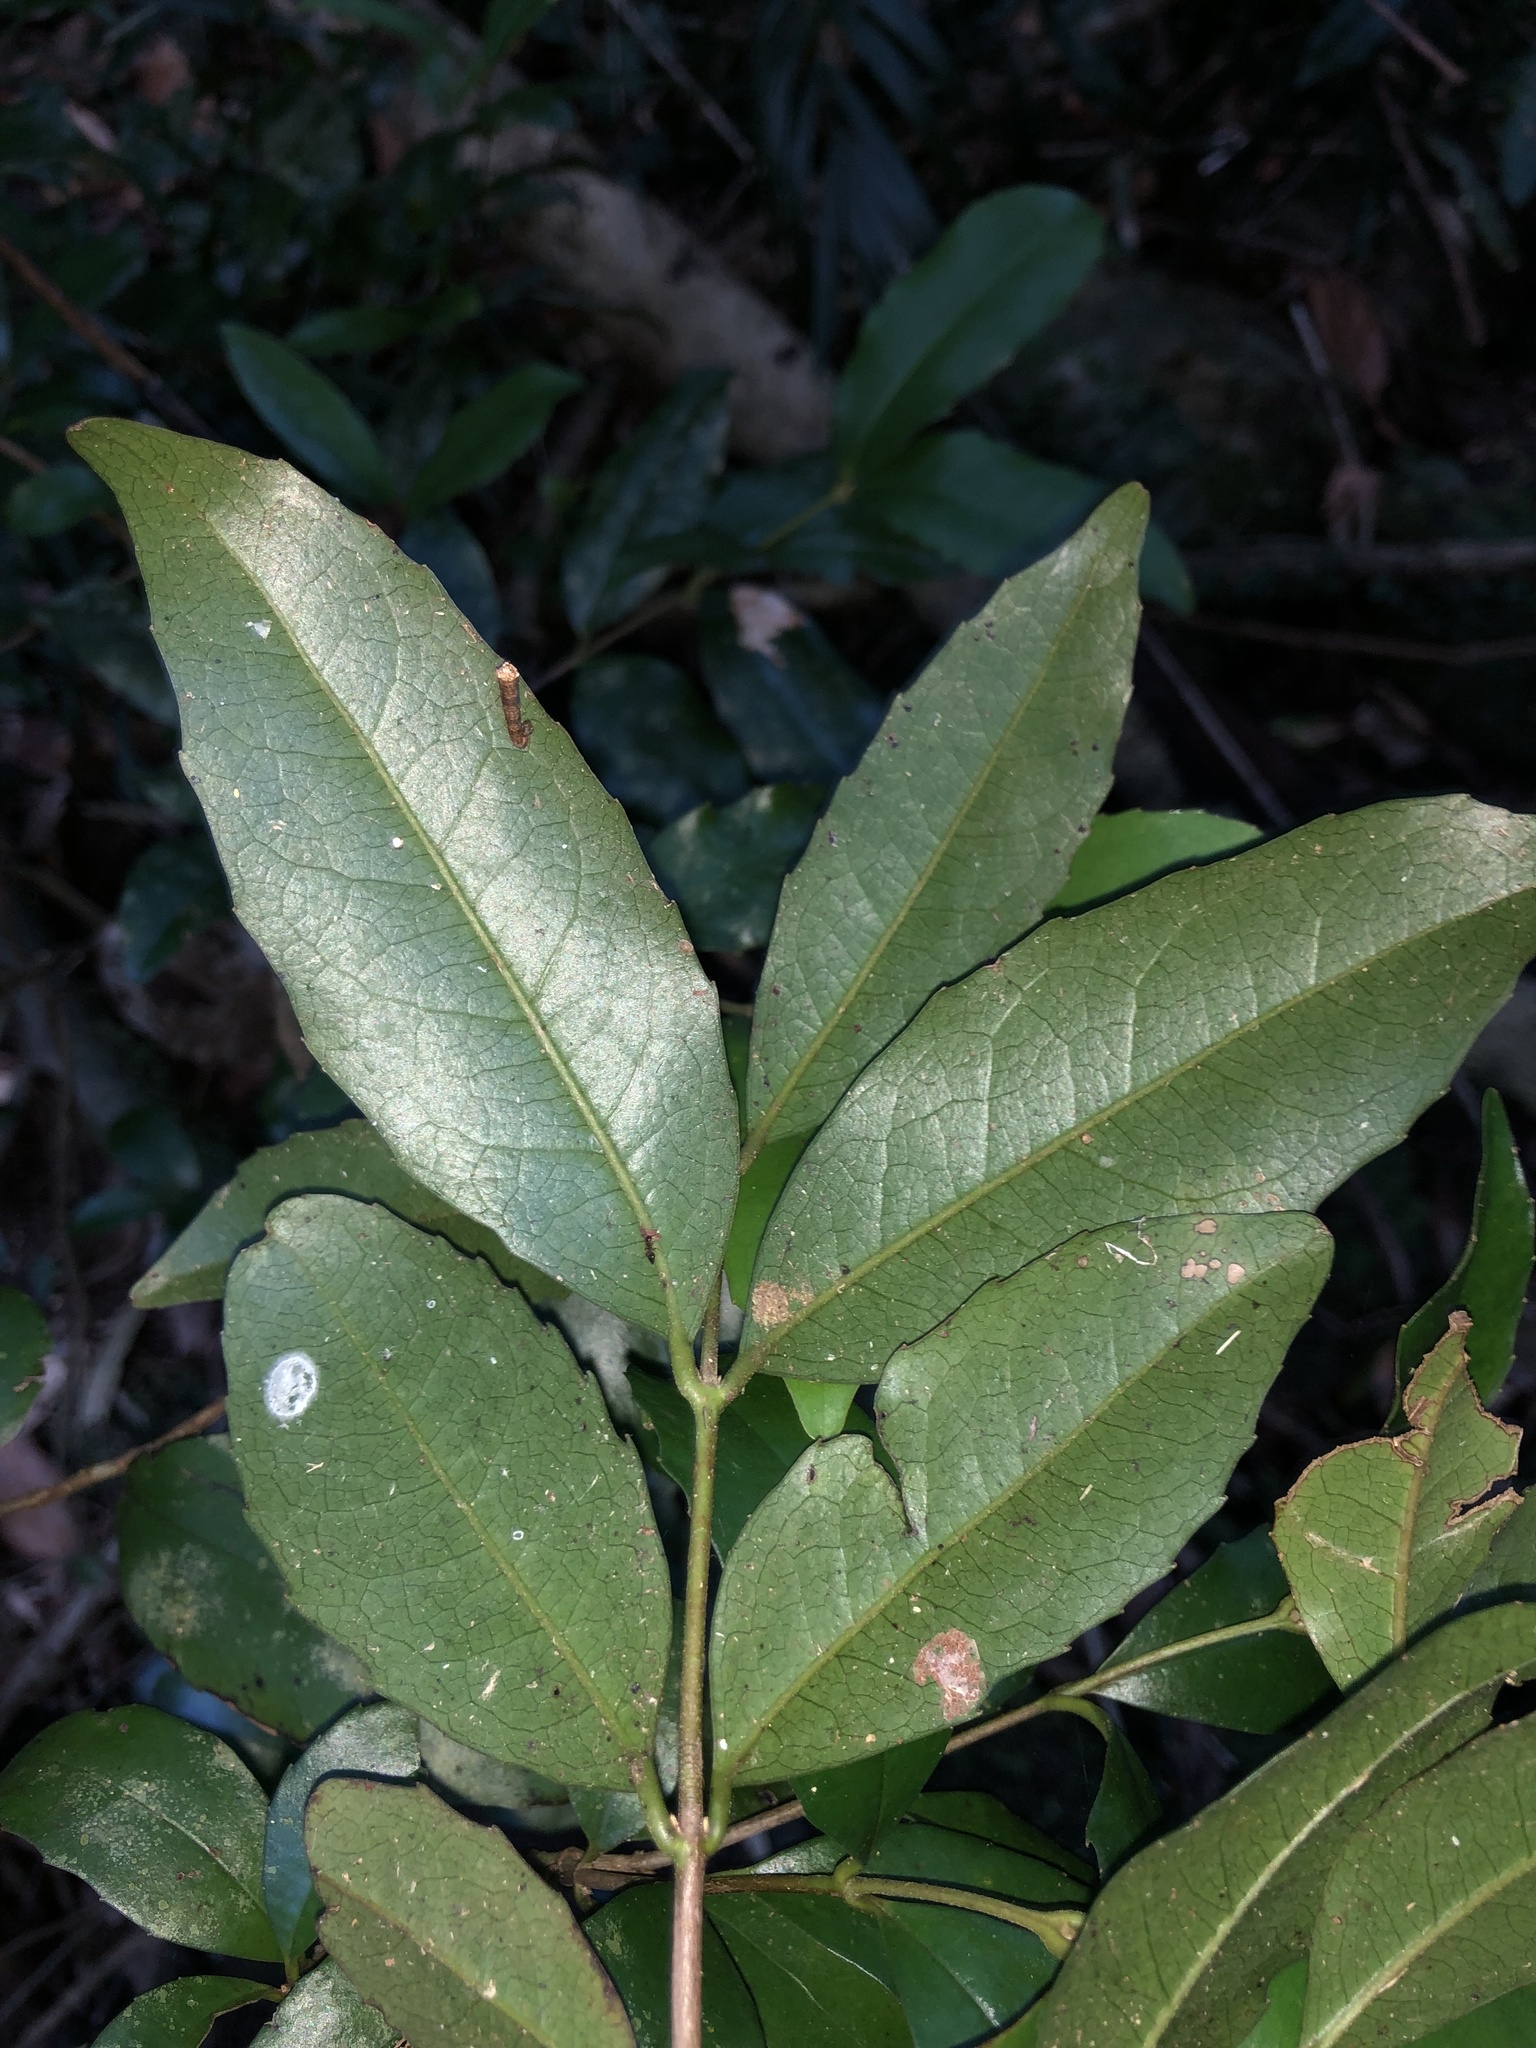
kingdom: Plantae
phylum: Tracheophyta
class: Magnoliopsida
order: Laurales
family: Atherospermataceae
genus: Doryphora
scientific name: Doryphora sassafras
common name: Golden-sassafras
